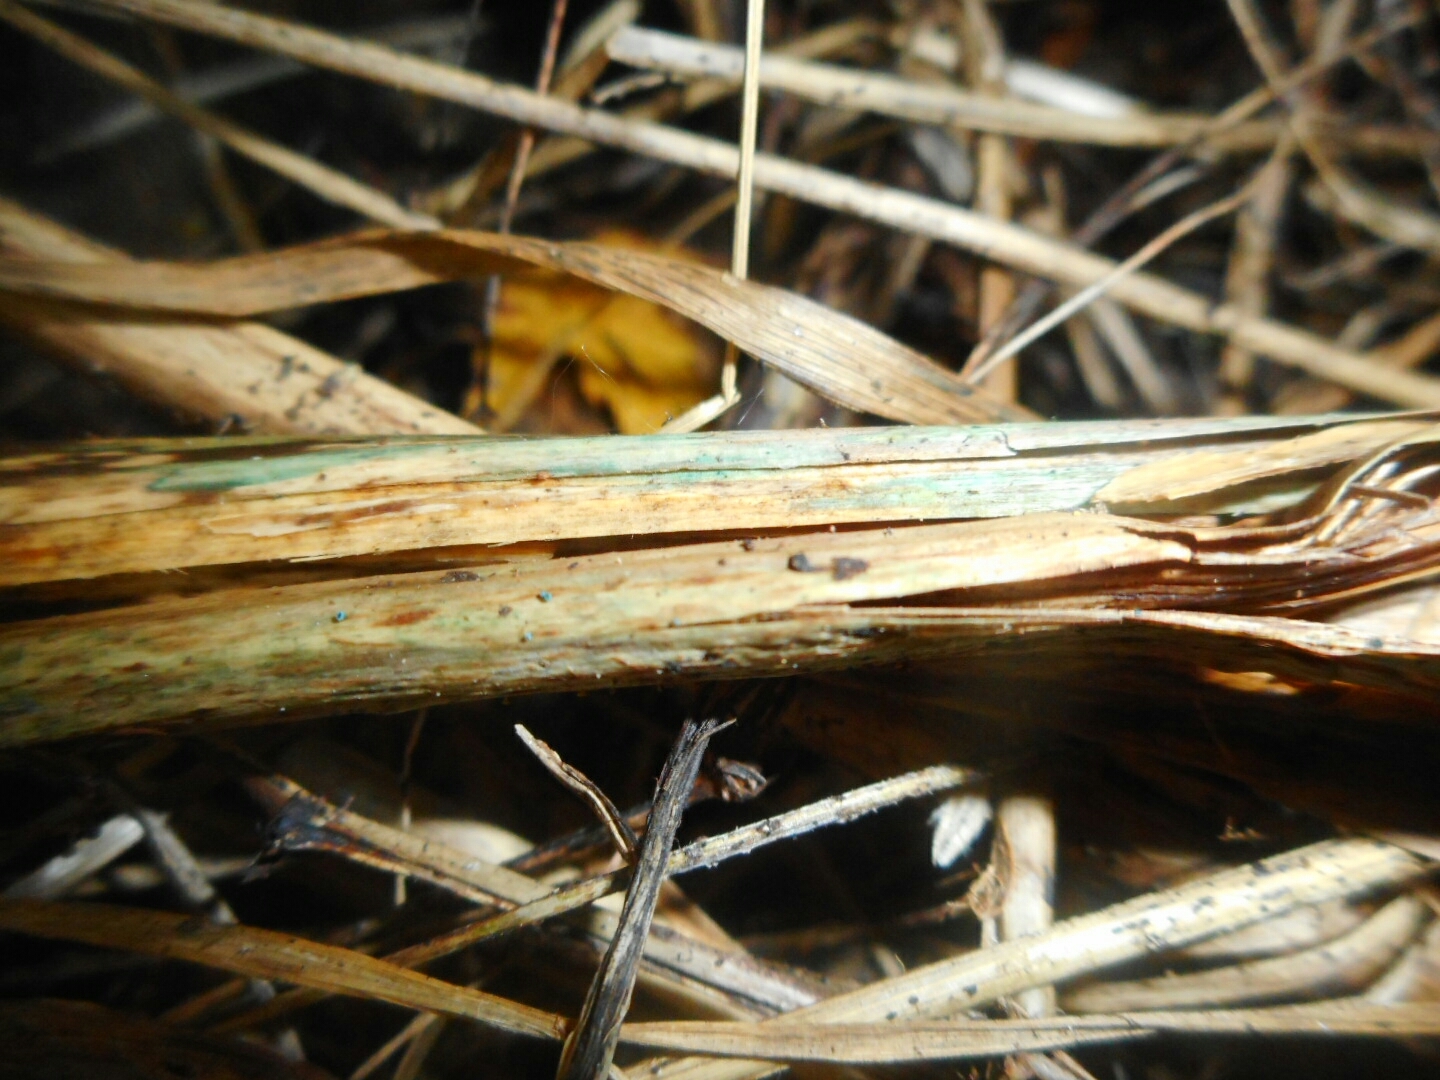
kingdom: Fungi
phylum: Ascomycota
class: Leotiomycetes
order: Helotiales
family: Chlorociboriaceae
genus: Chlorociboria
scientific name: Chlorociboria aeruginella
